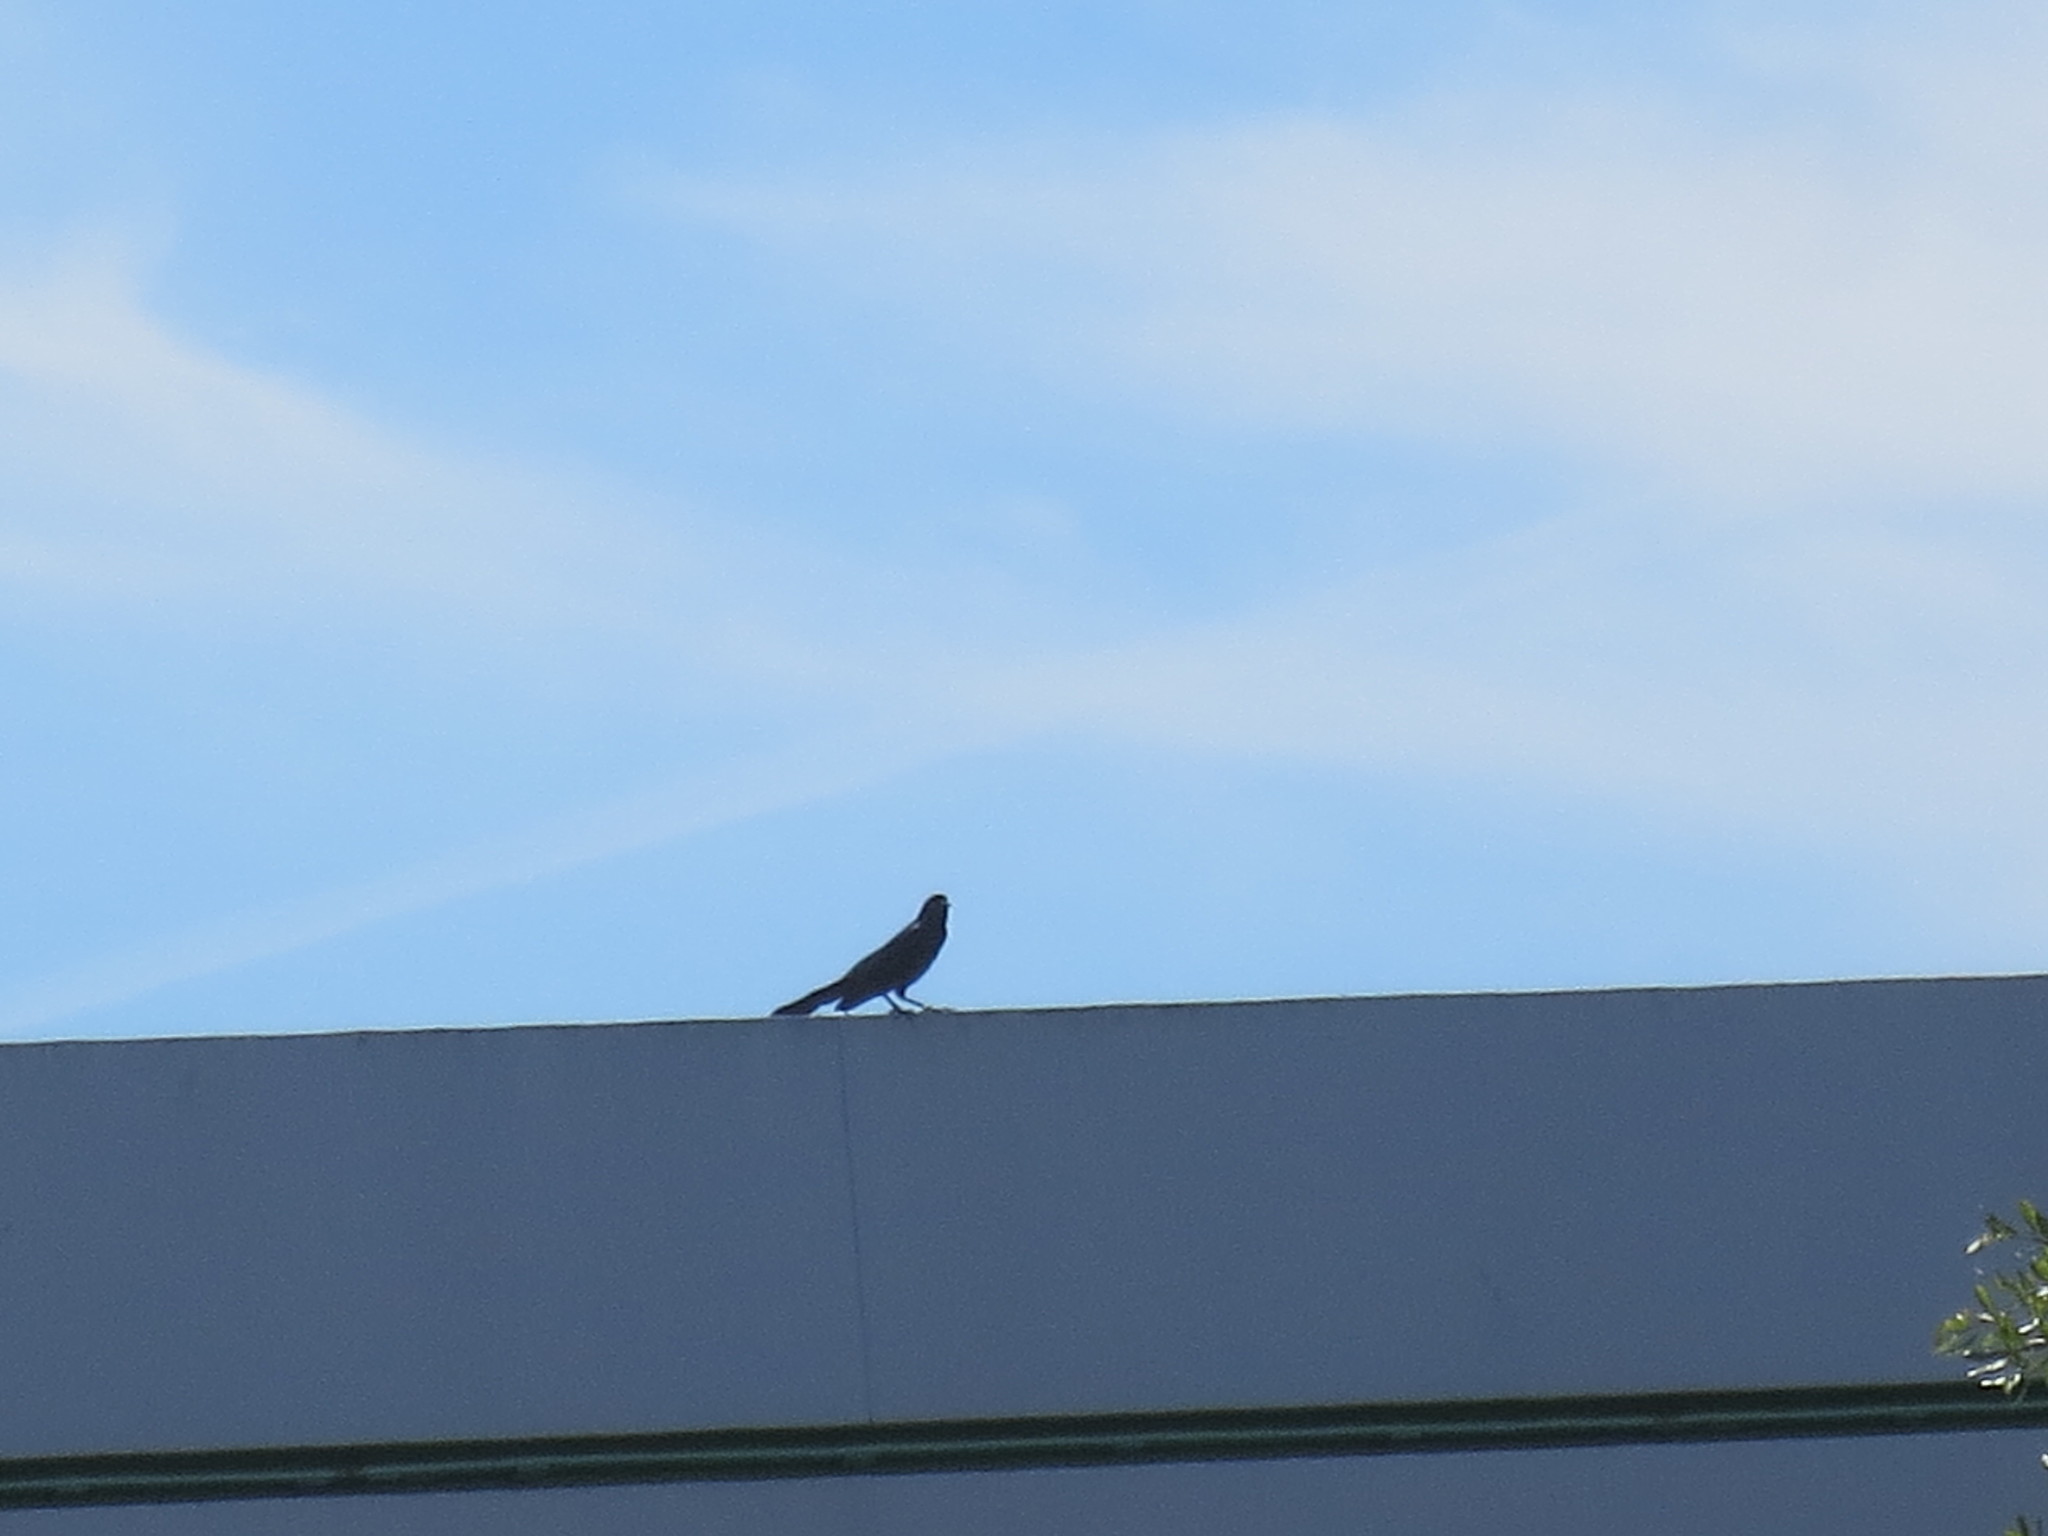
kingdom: Animalia
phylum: Chordata
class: Aves
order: Passeriformes
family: Icteridae
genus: Quiscalus
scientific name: Quiscalus major
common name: Boat-tailed grackle
